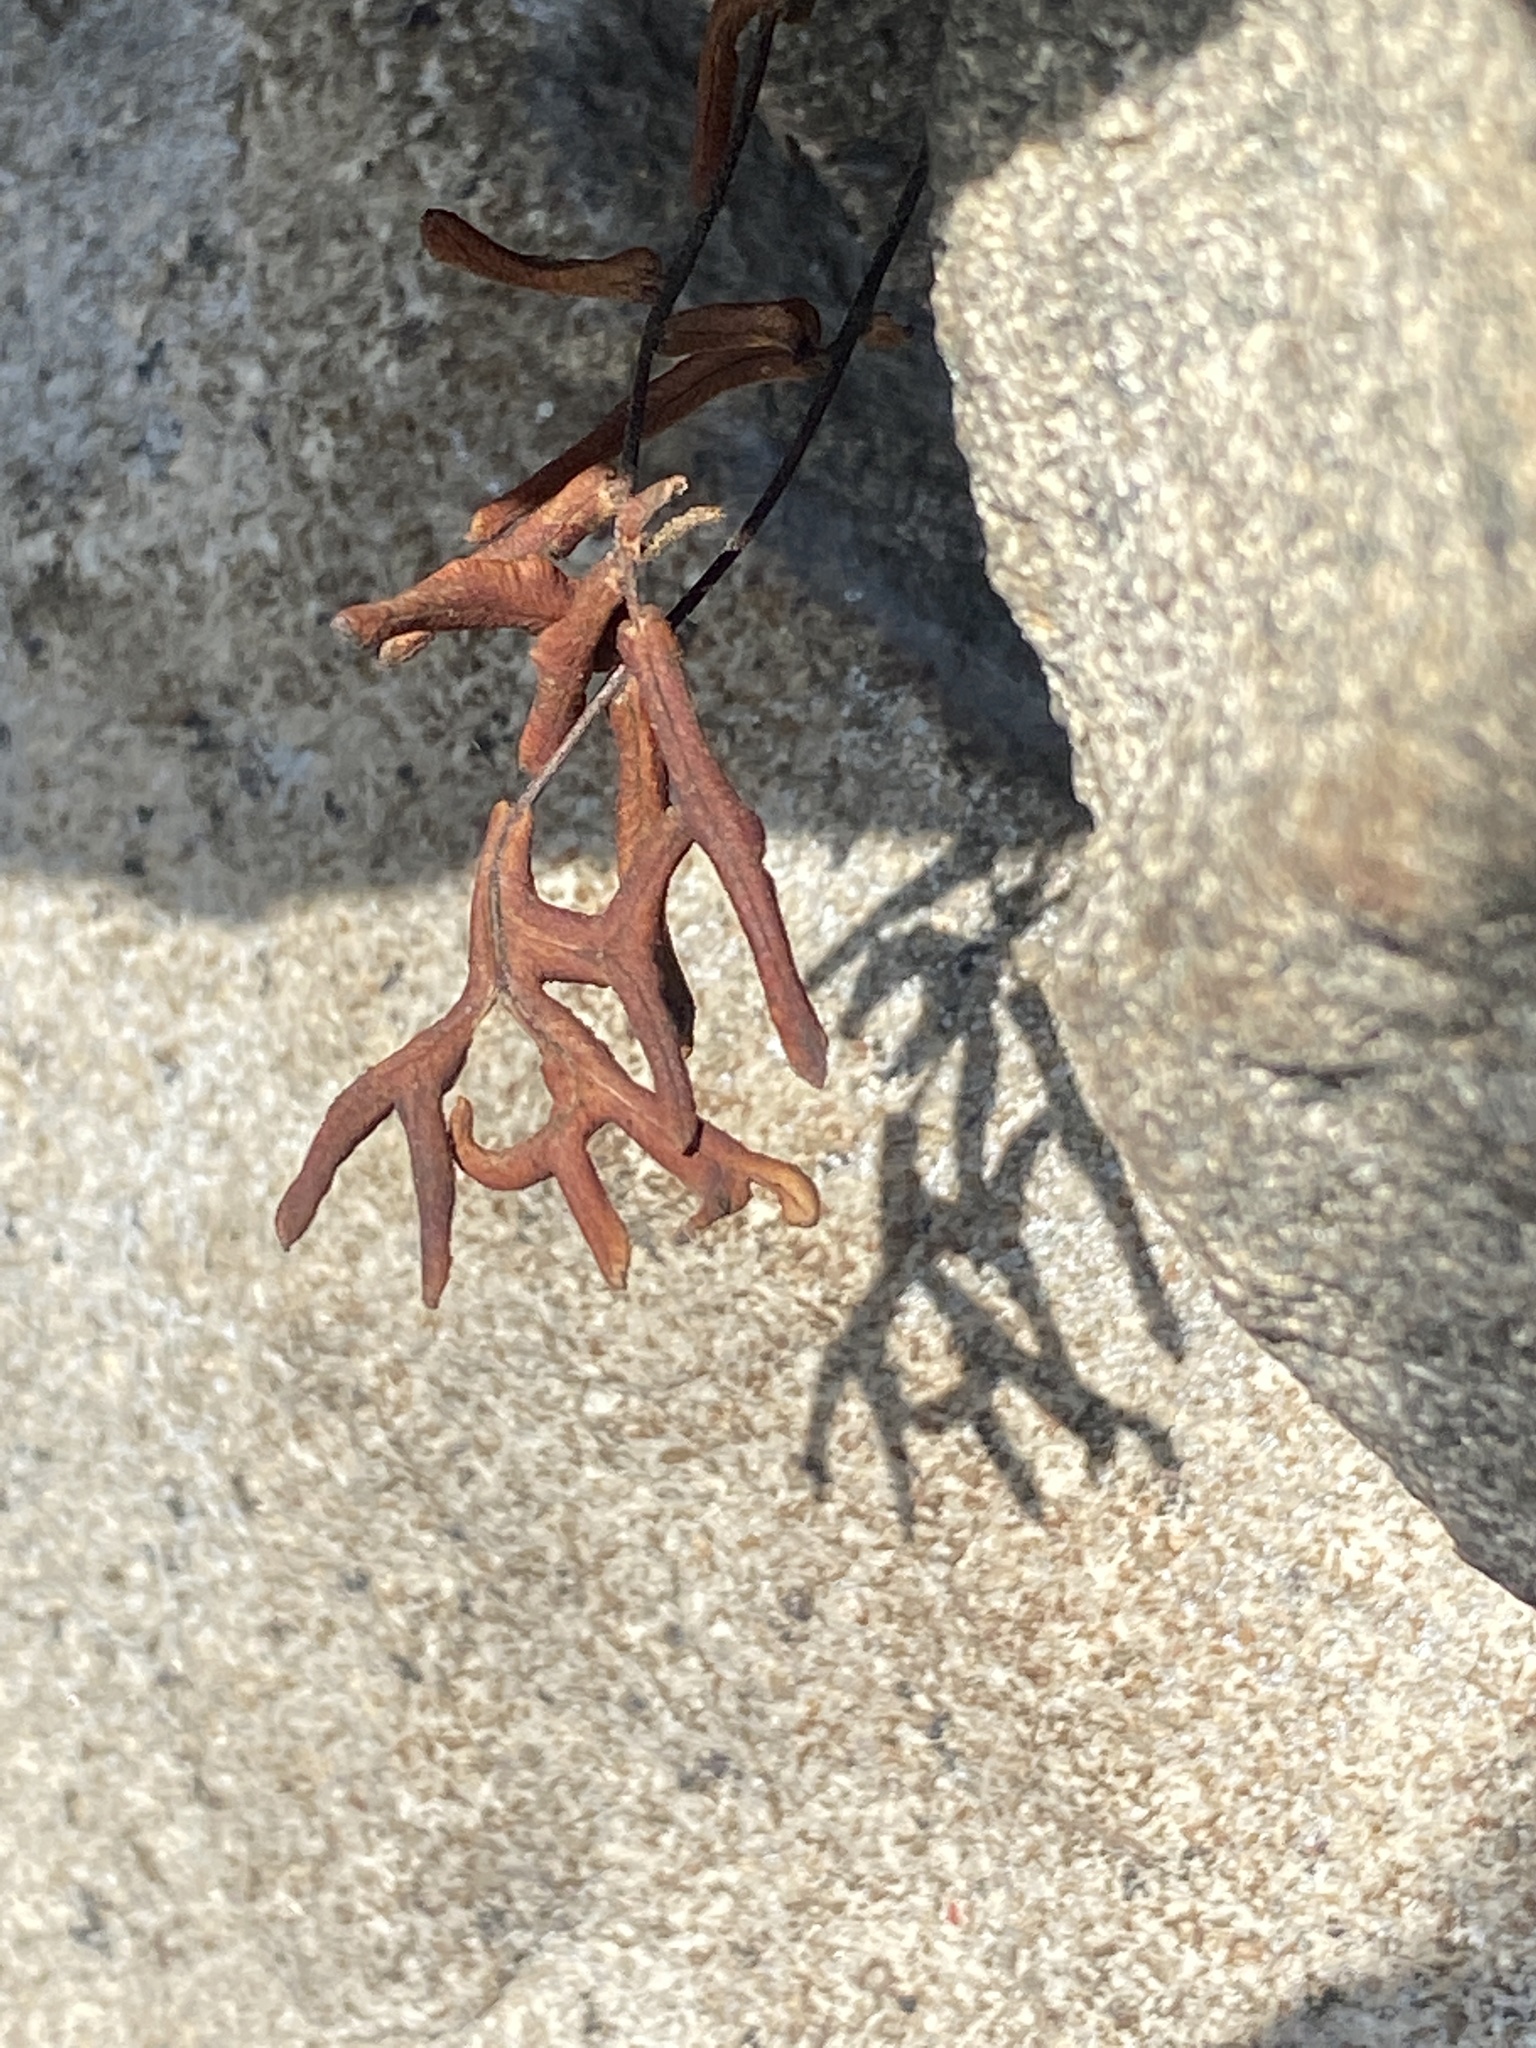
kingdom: Plantae
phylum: Tracheophyta
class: Polypodiopsida
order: Polypodiales
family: Pteridaceae
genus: Pellaea
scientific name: Pellaea atropurpurea
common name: Hairy cliffbrake
